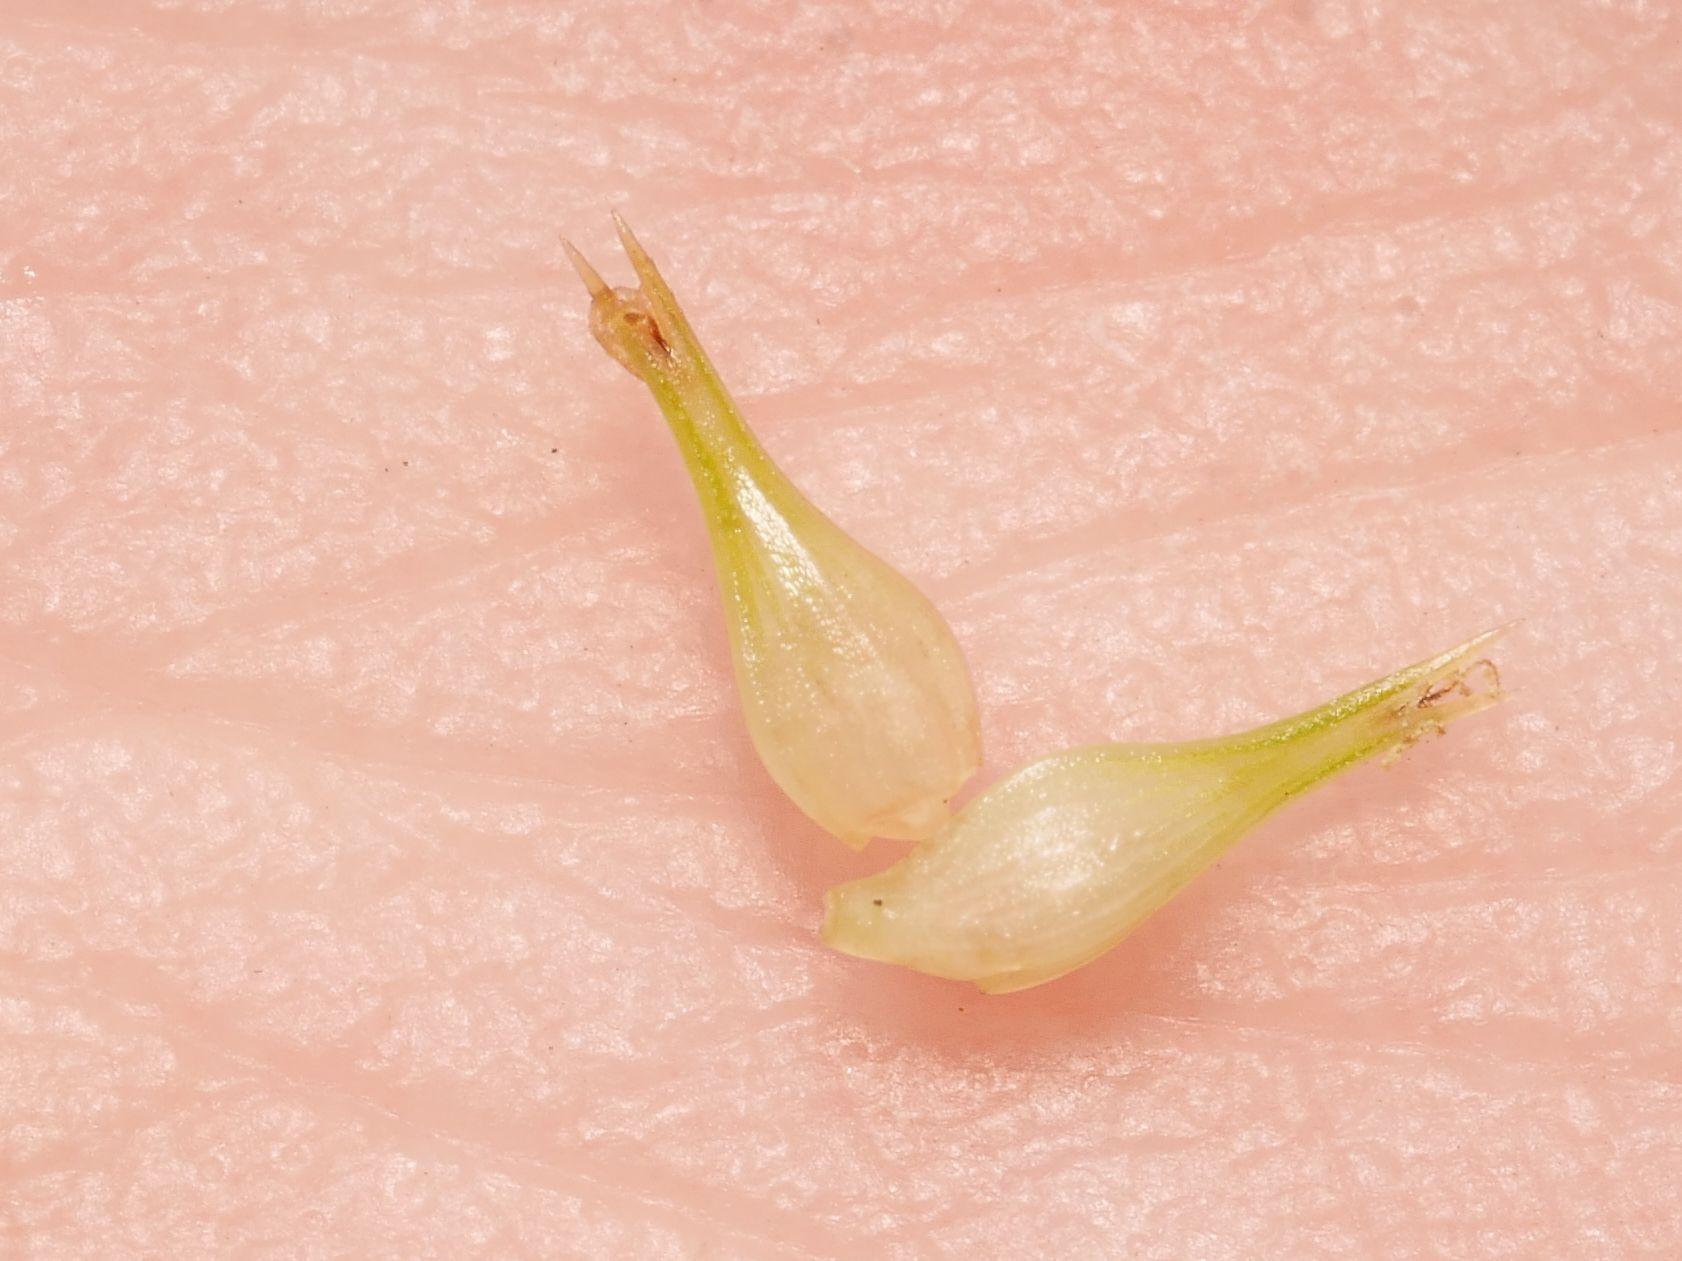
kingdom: Plantae
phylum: Tracheophyta
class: Liliopsida
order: Poales
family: Cyperaceae
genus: Carex
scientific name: Carex pseudocyperus
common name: Cyperus sedge
